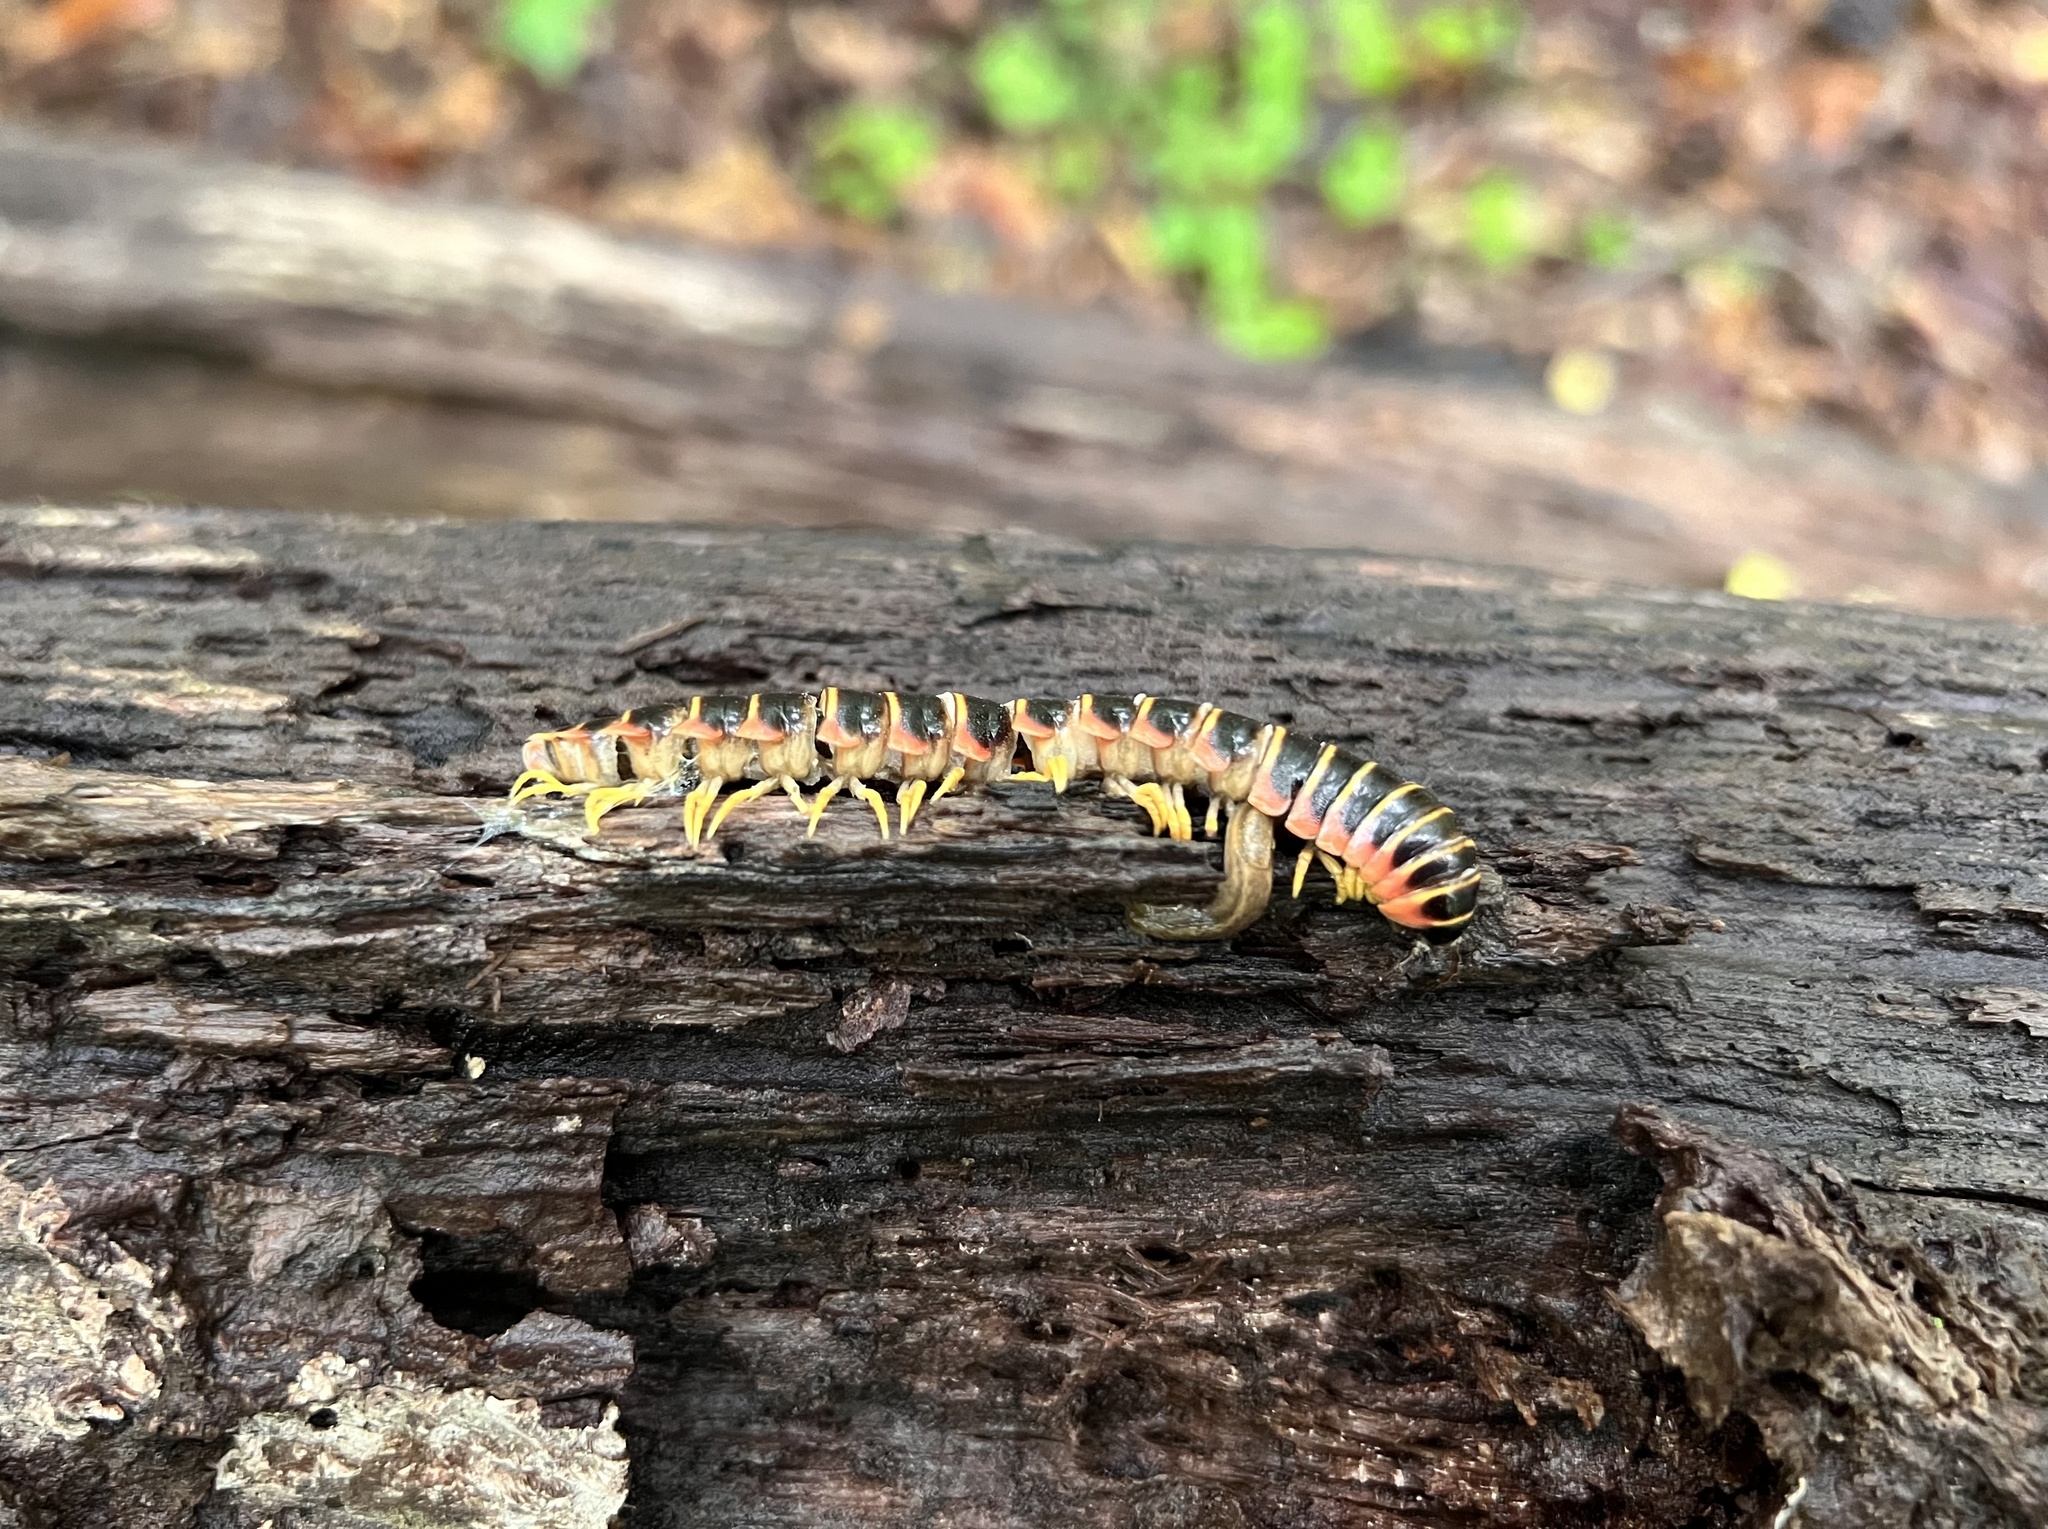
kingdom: Animalia
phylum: Arthropoda
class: Diplopoda
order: Polydesmida
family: Xystodesmidae
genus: Apheloria
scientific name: Apheloria virginiensis
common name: Black-and-gold flat millipede
